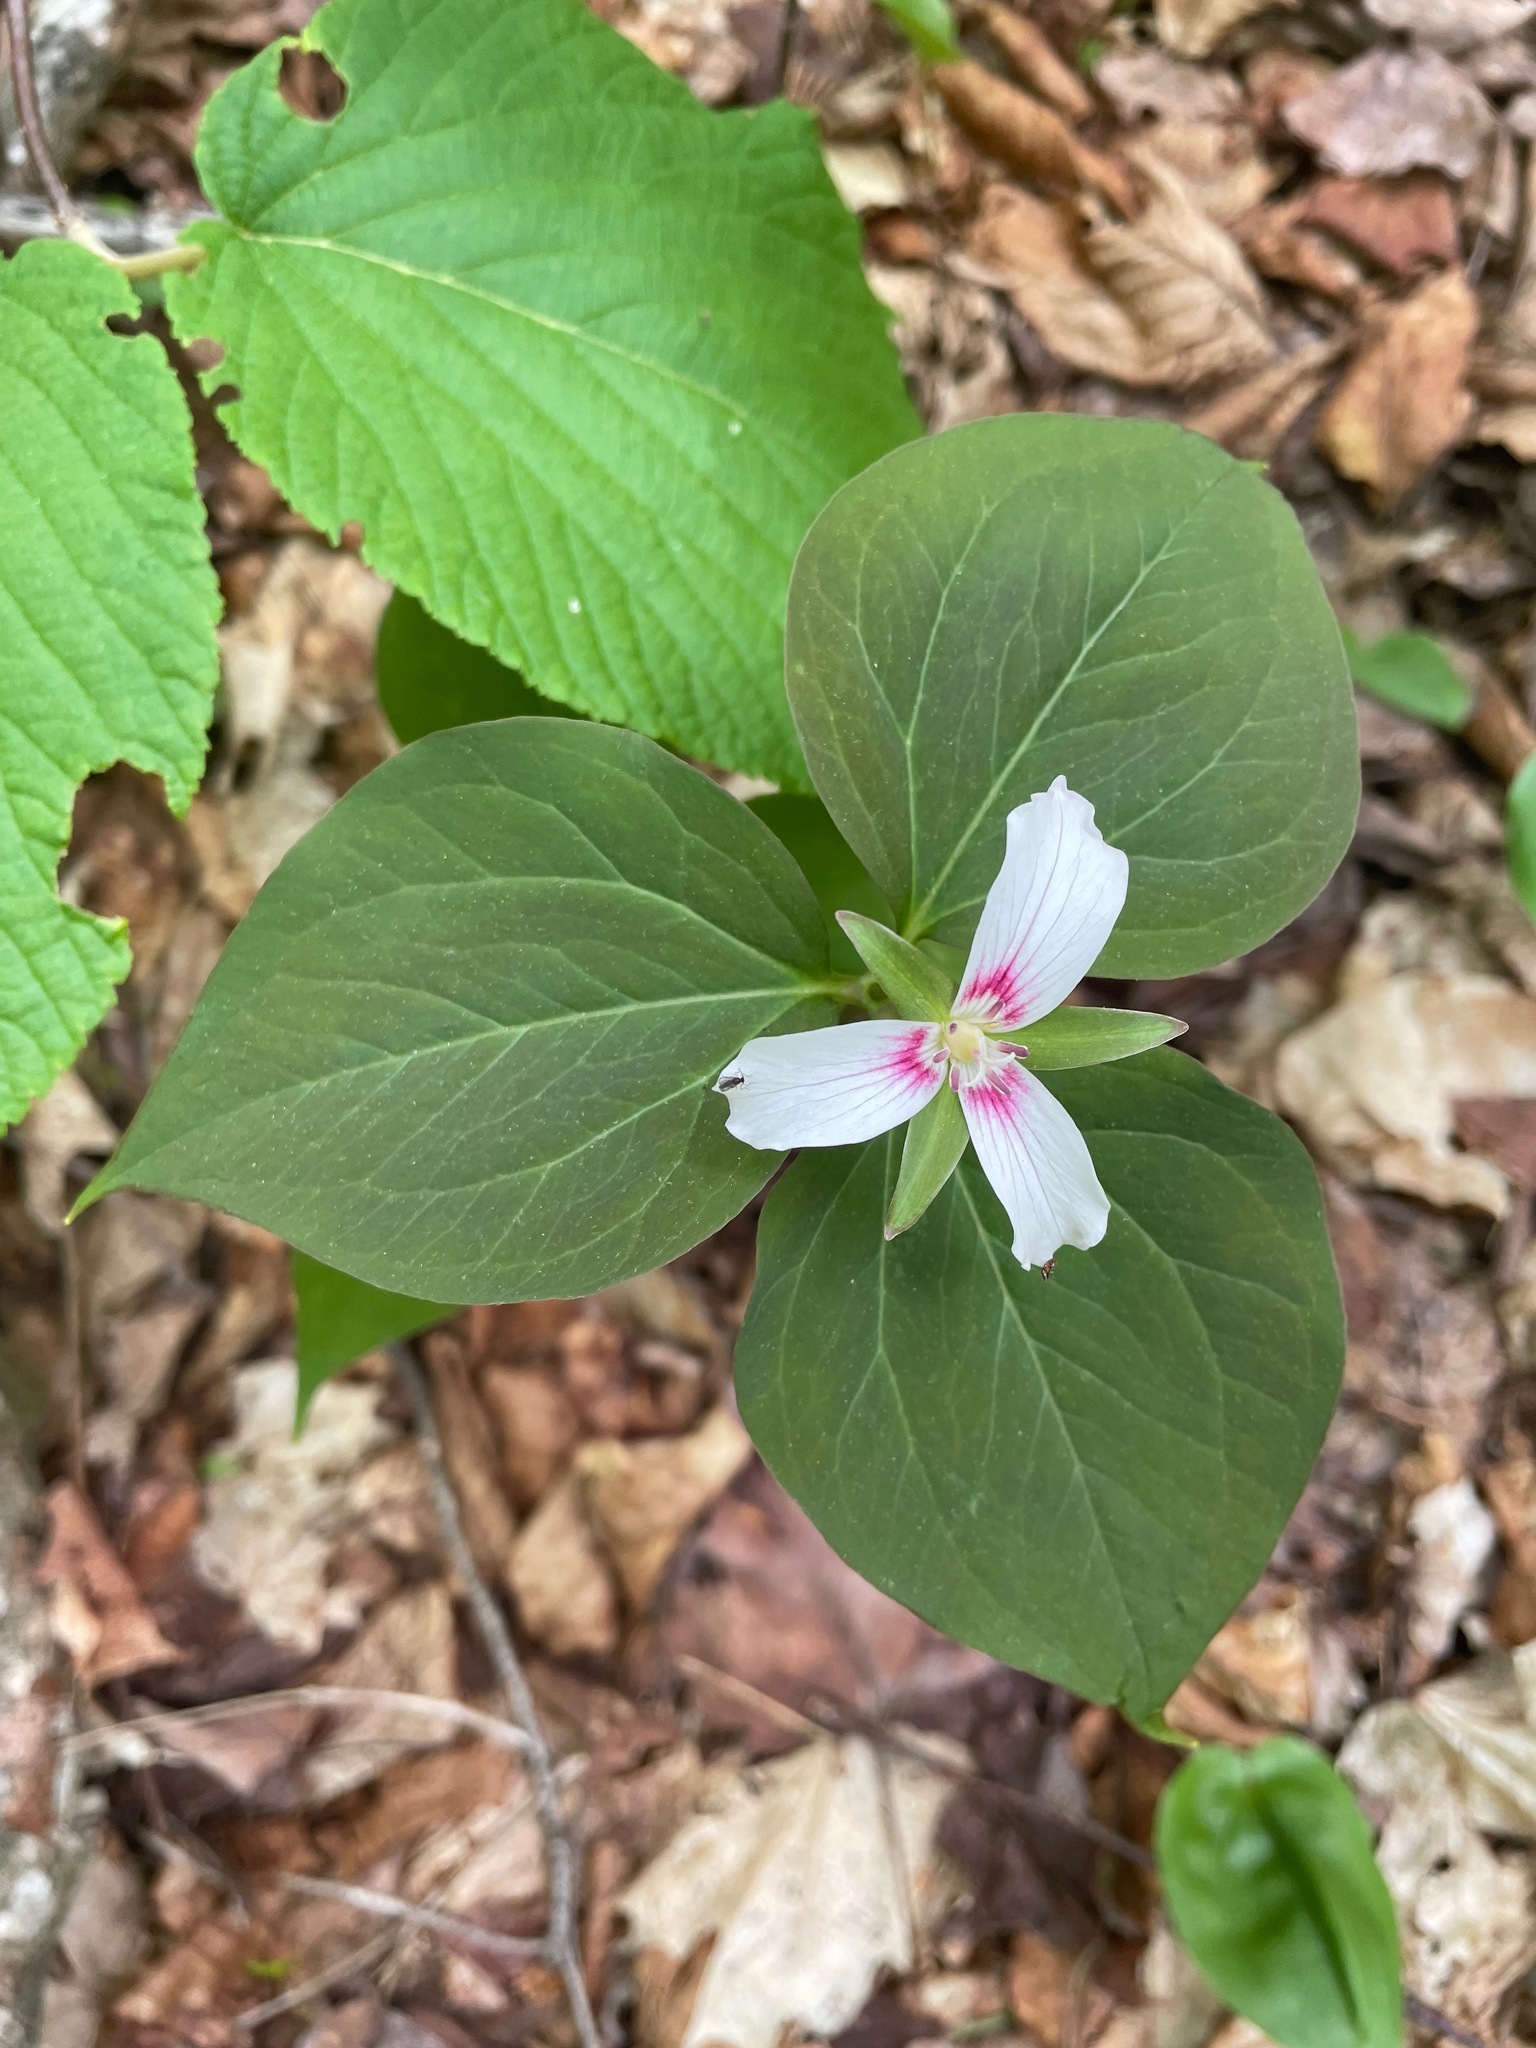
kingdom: Plantae
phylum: Tracheophyta
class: Liliopsida
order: Liliales
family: Melanthiaceae
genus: Trillium
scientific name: Trillium undulatum
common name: Paint trillium
